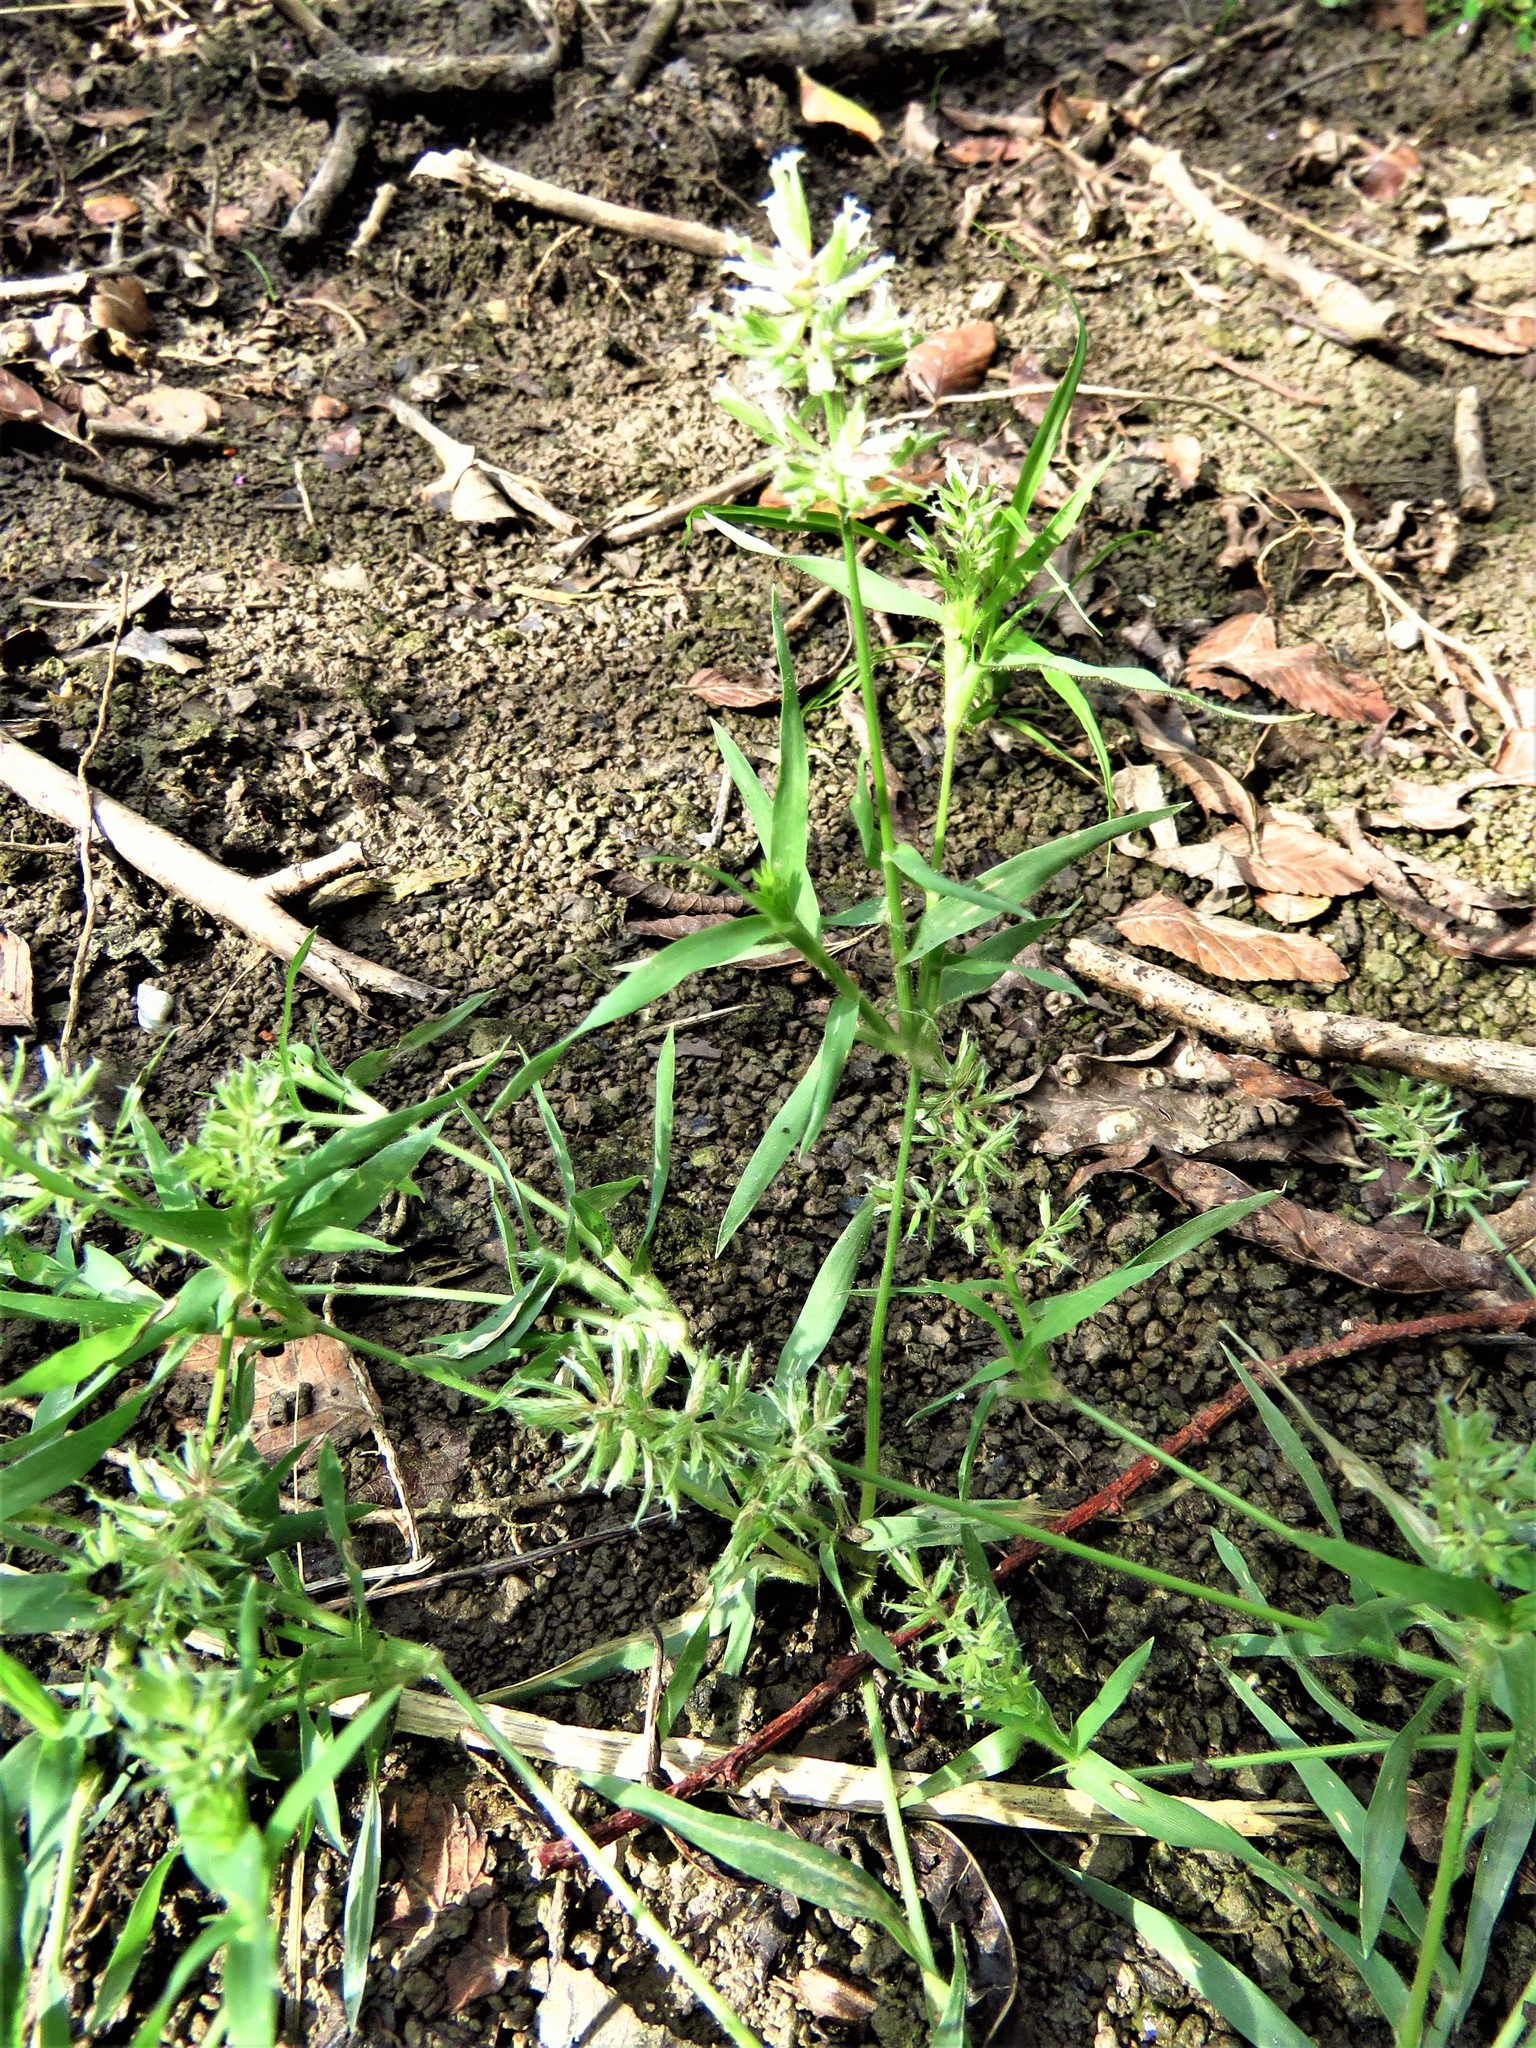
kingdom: Plantae
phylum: Tracheophyta
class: Liliopsida
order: Poales
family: Poaceae
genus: Eragrostis
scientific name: Eragrostis reptans
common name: Creeping love grass
